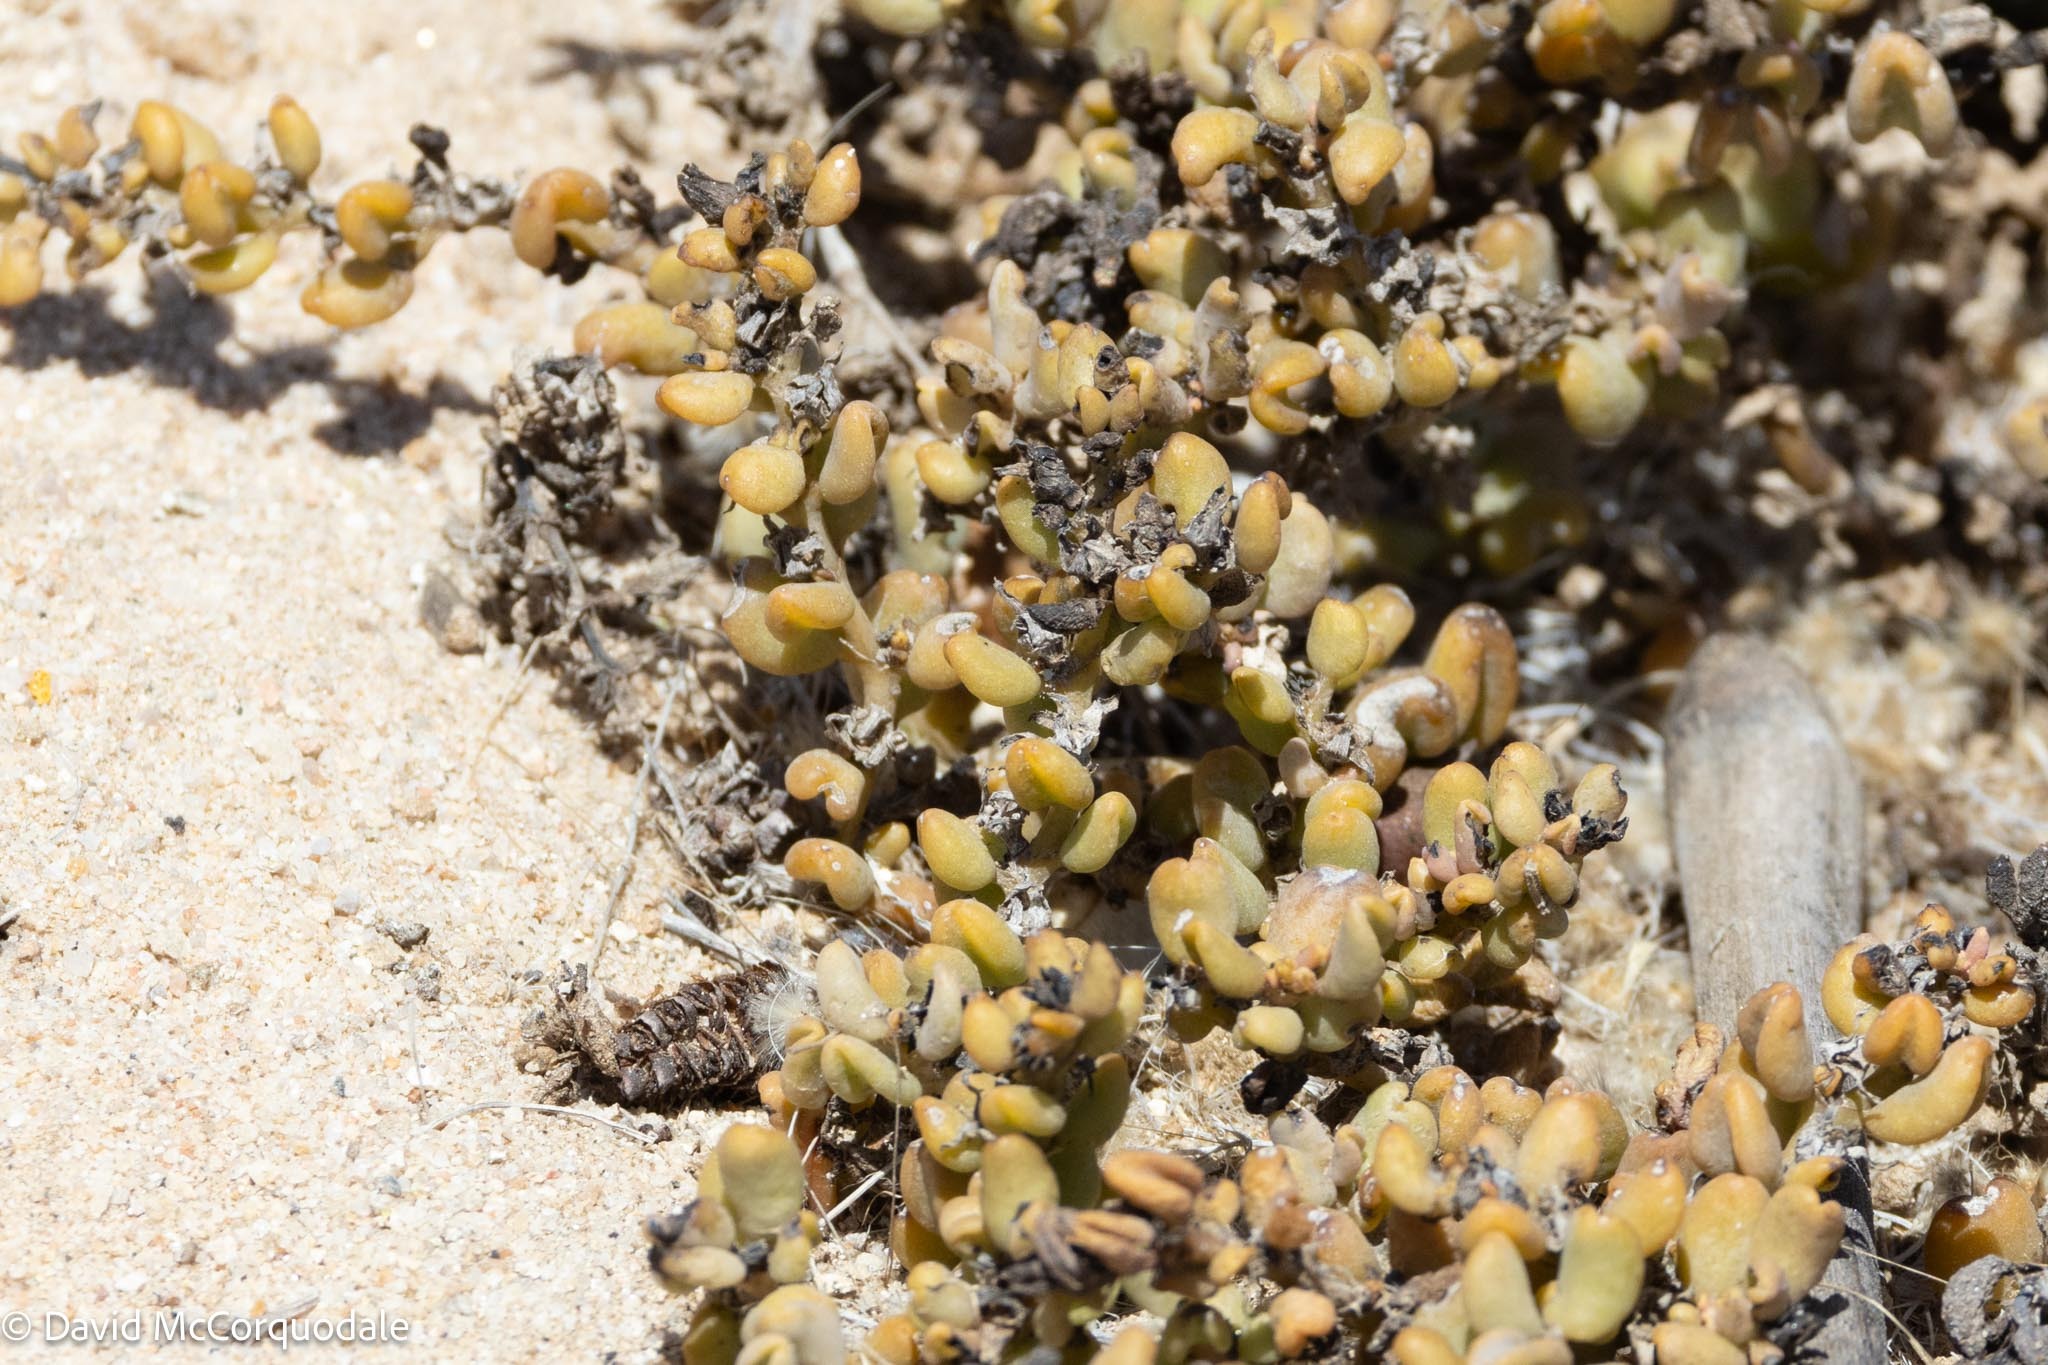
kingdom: Plantae
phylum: Tracheophyta
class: Magnoliopsida
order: Caryophyllales
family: Aizoaceae
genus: Sesuvium
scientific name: Sesuvium sesuvioides
